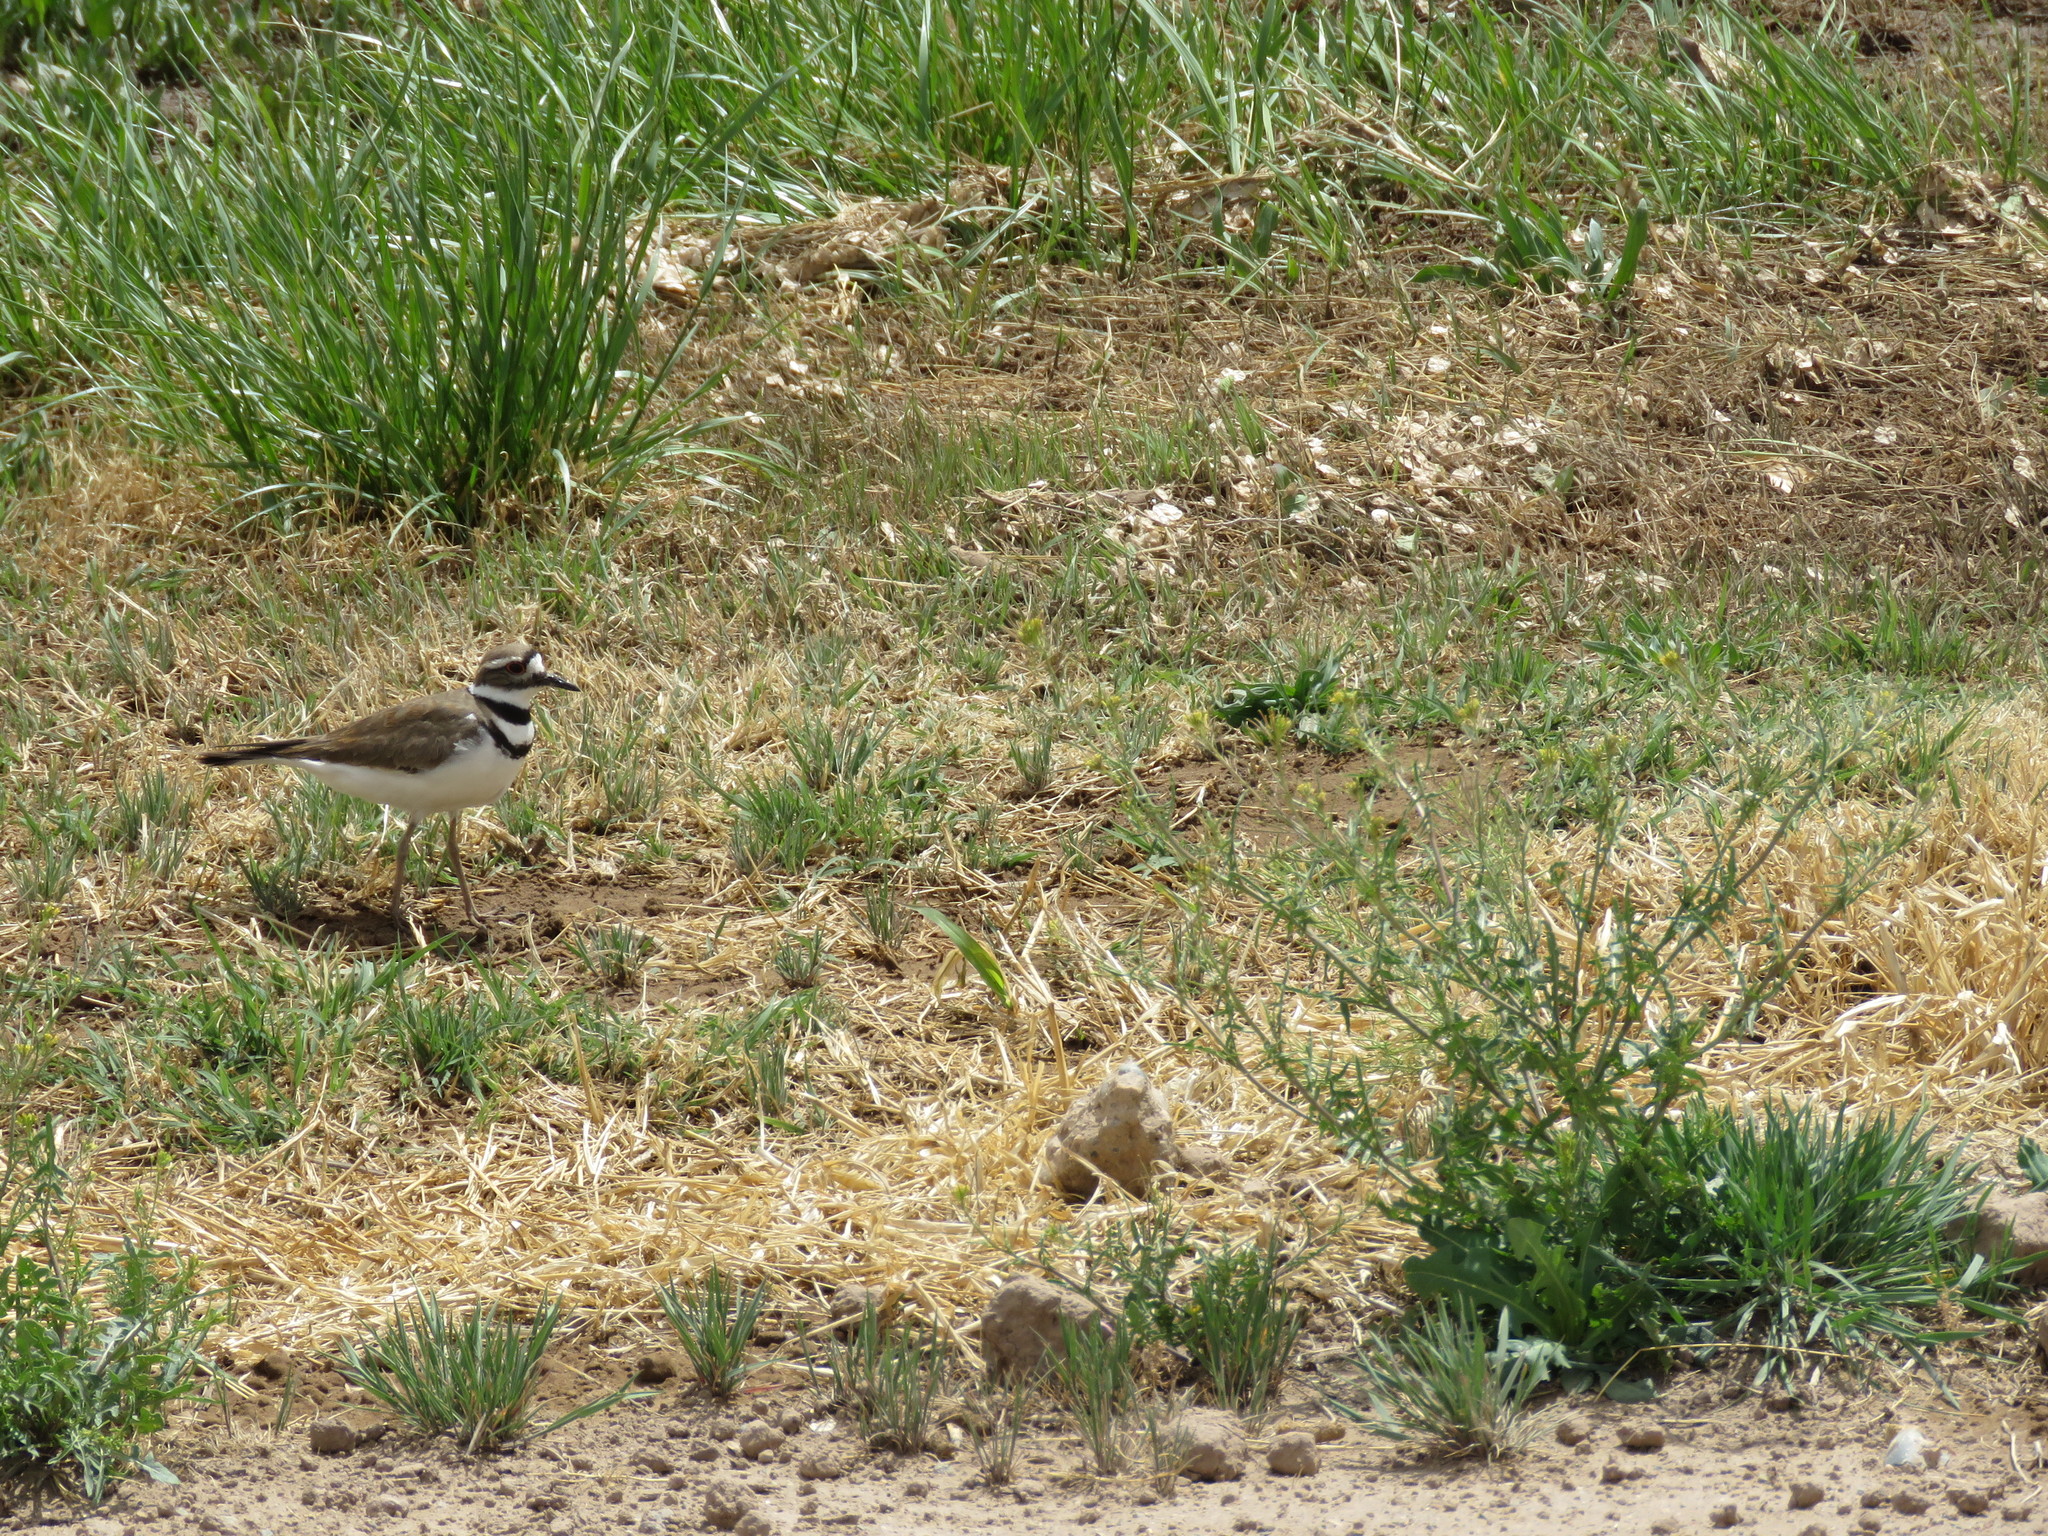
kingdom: Animalia
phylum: Chordata
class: Aves
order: Charadriiformes
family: Charadriidae
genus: Charadrius
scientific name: Charadrius vociferus
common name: Killdeer
